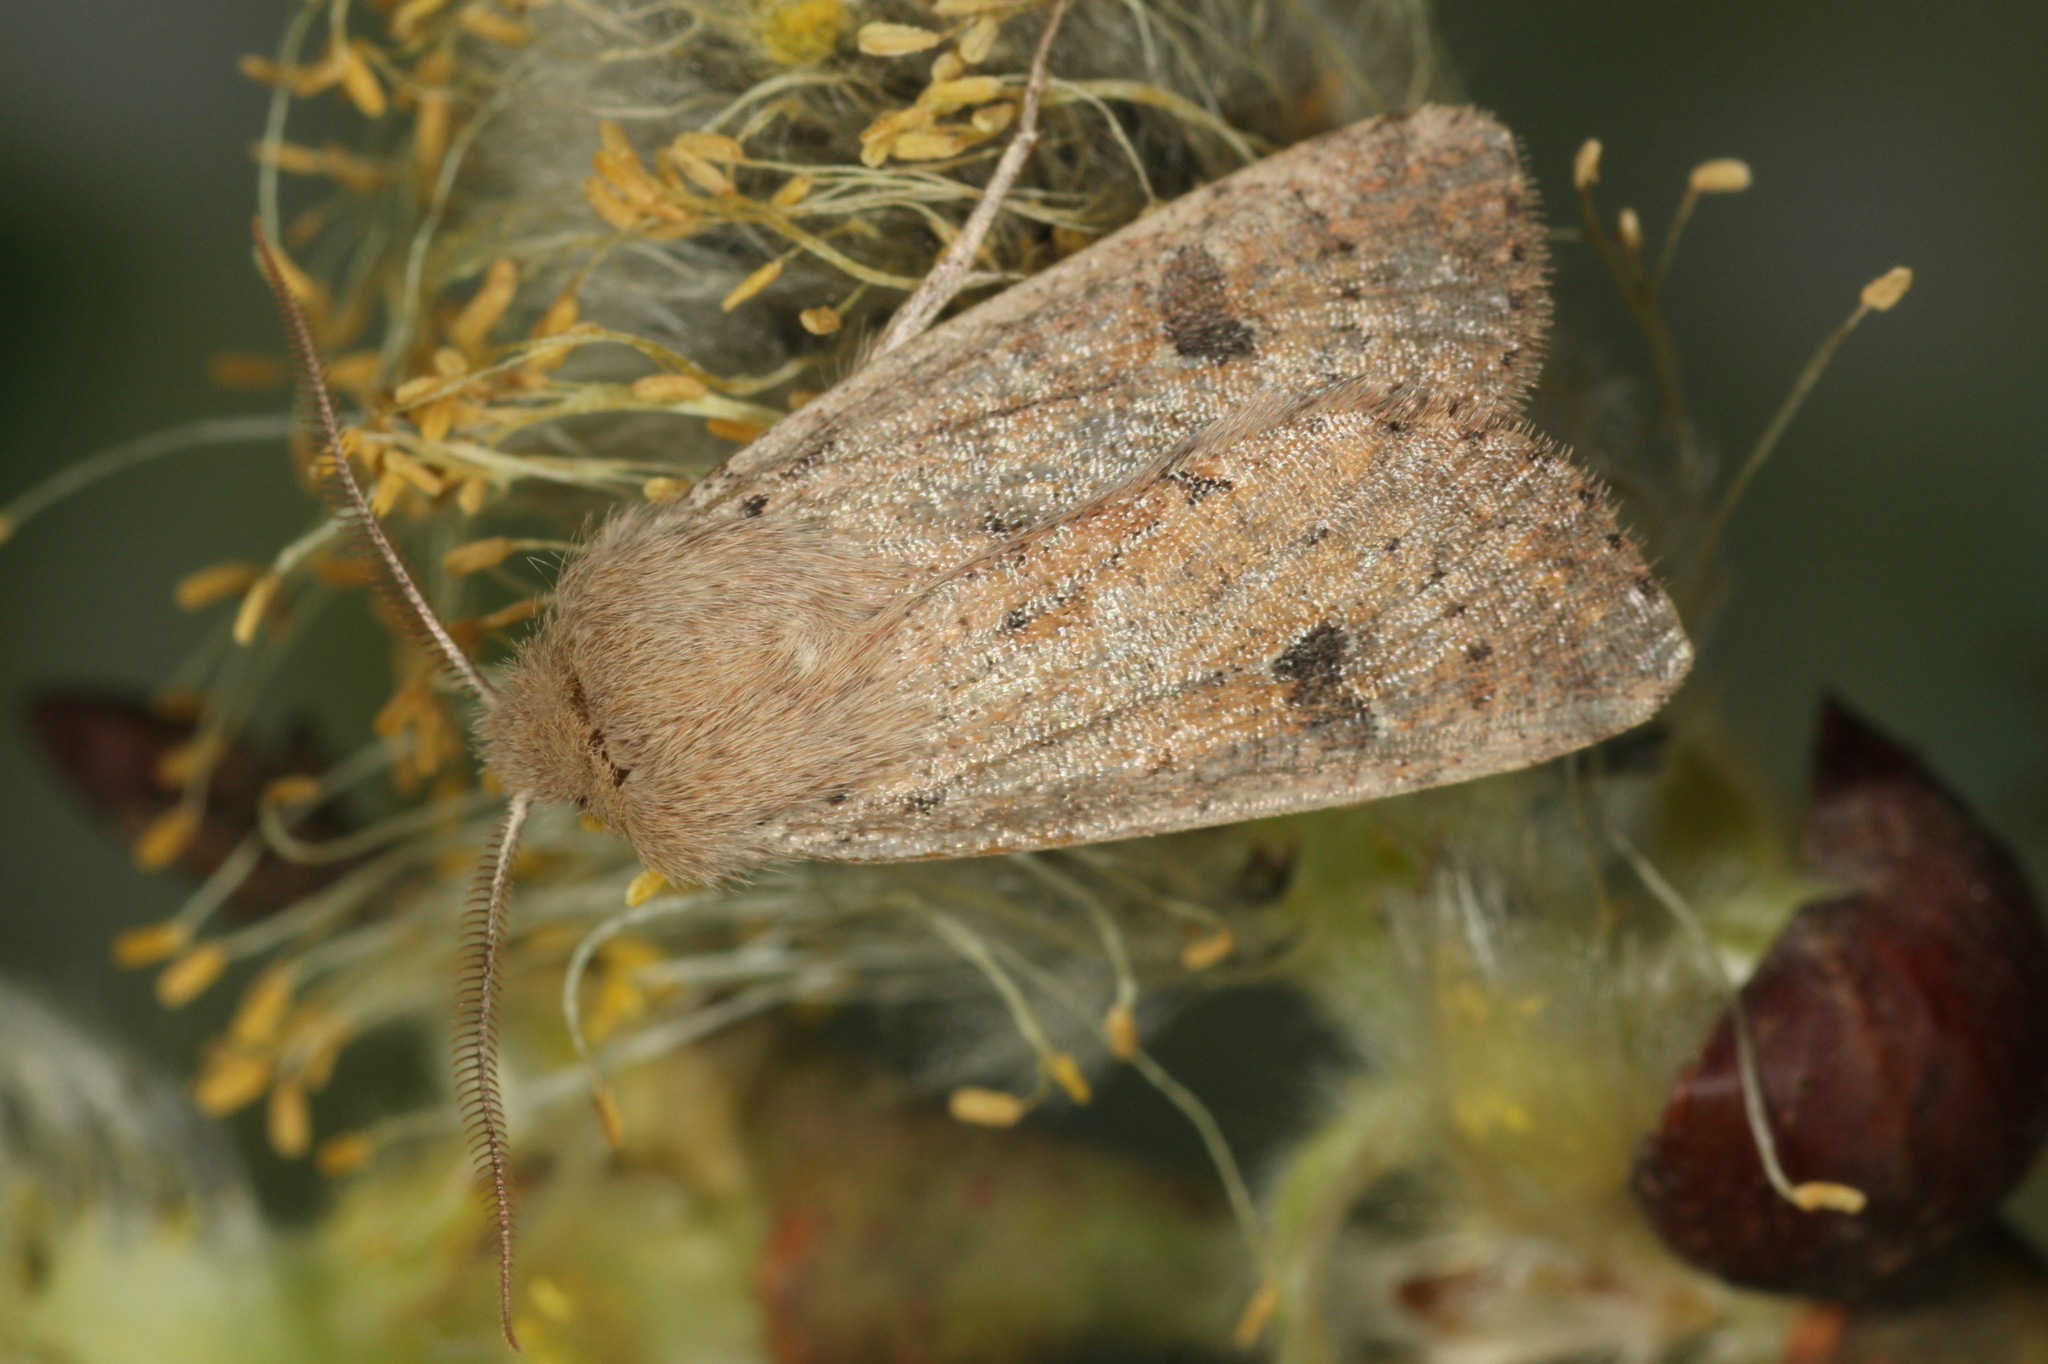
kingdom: Animalia
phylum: Arthropoda
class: Insecta
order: Lepidoptera
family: Noctuidae
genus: Orthosia
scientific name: Orthosia cruda
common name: Small quaker
